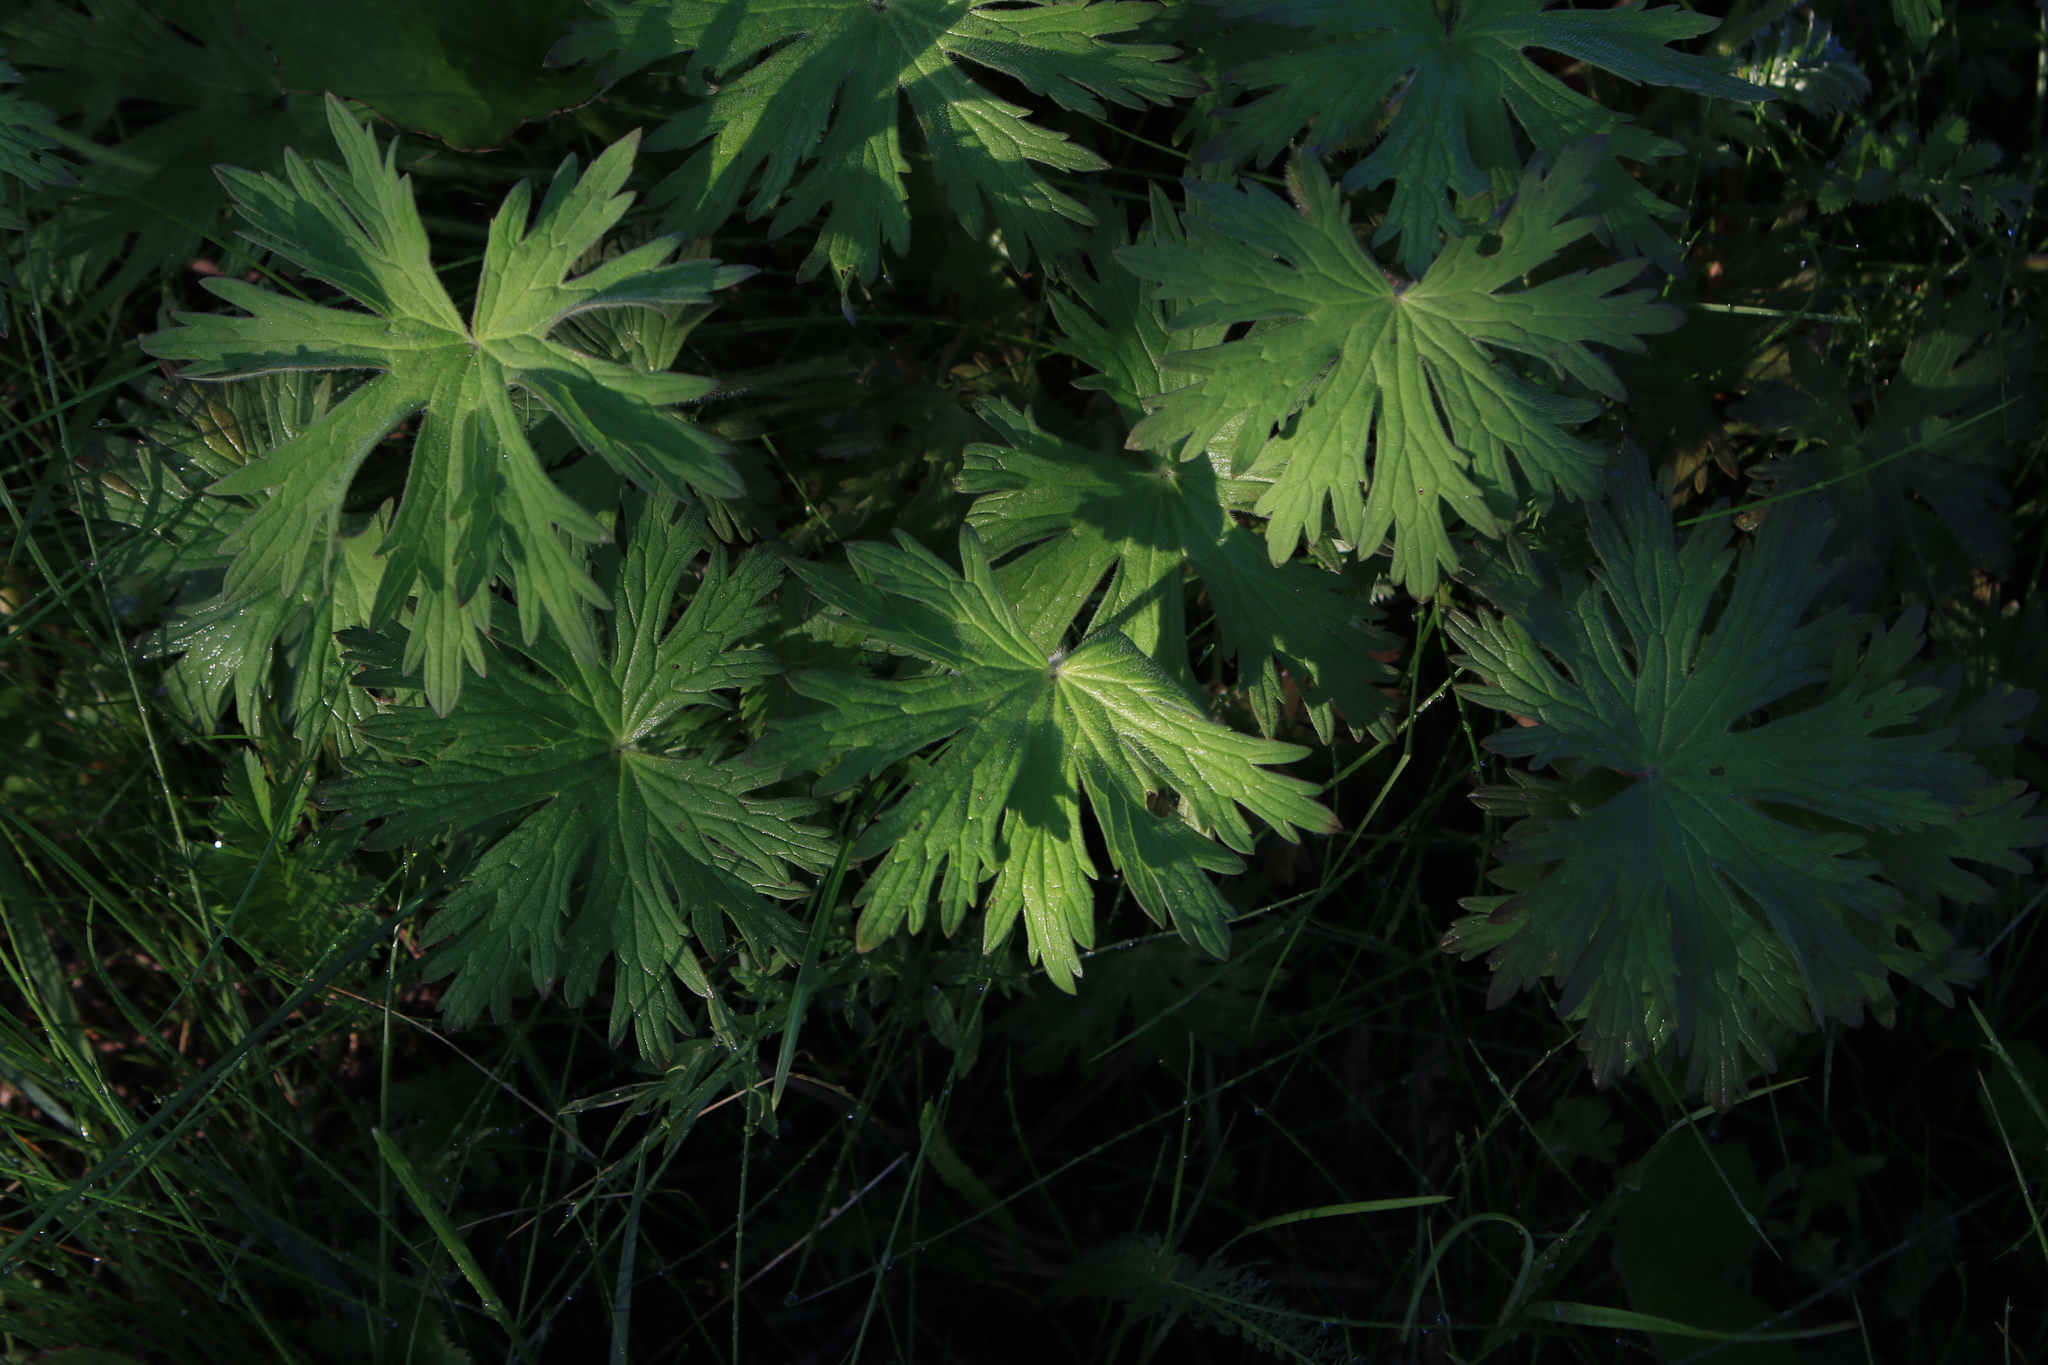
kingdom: Plantae
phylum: Tracheophyta
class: Magnoliopsida
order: Geraniales
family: Geraniaceae
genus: Geranium
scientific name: Geranium pratense
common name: Meadow crane's-bill
